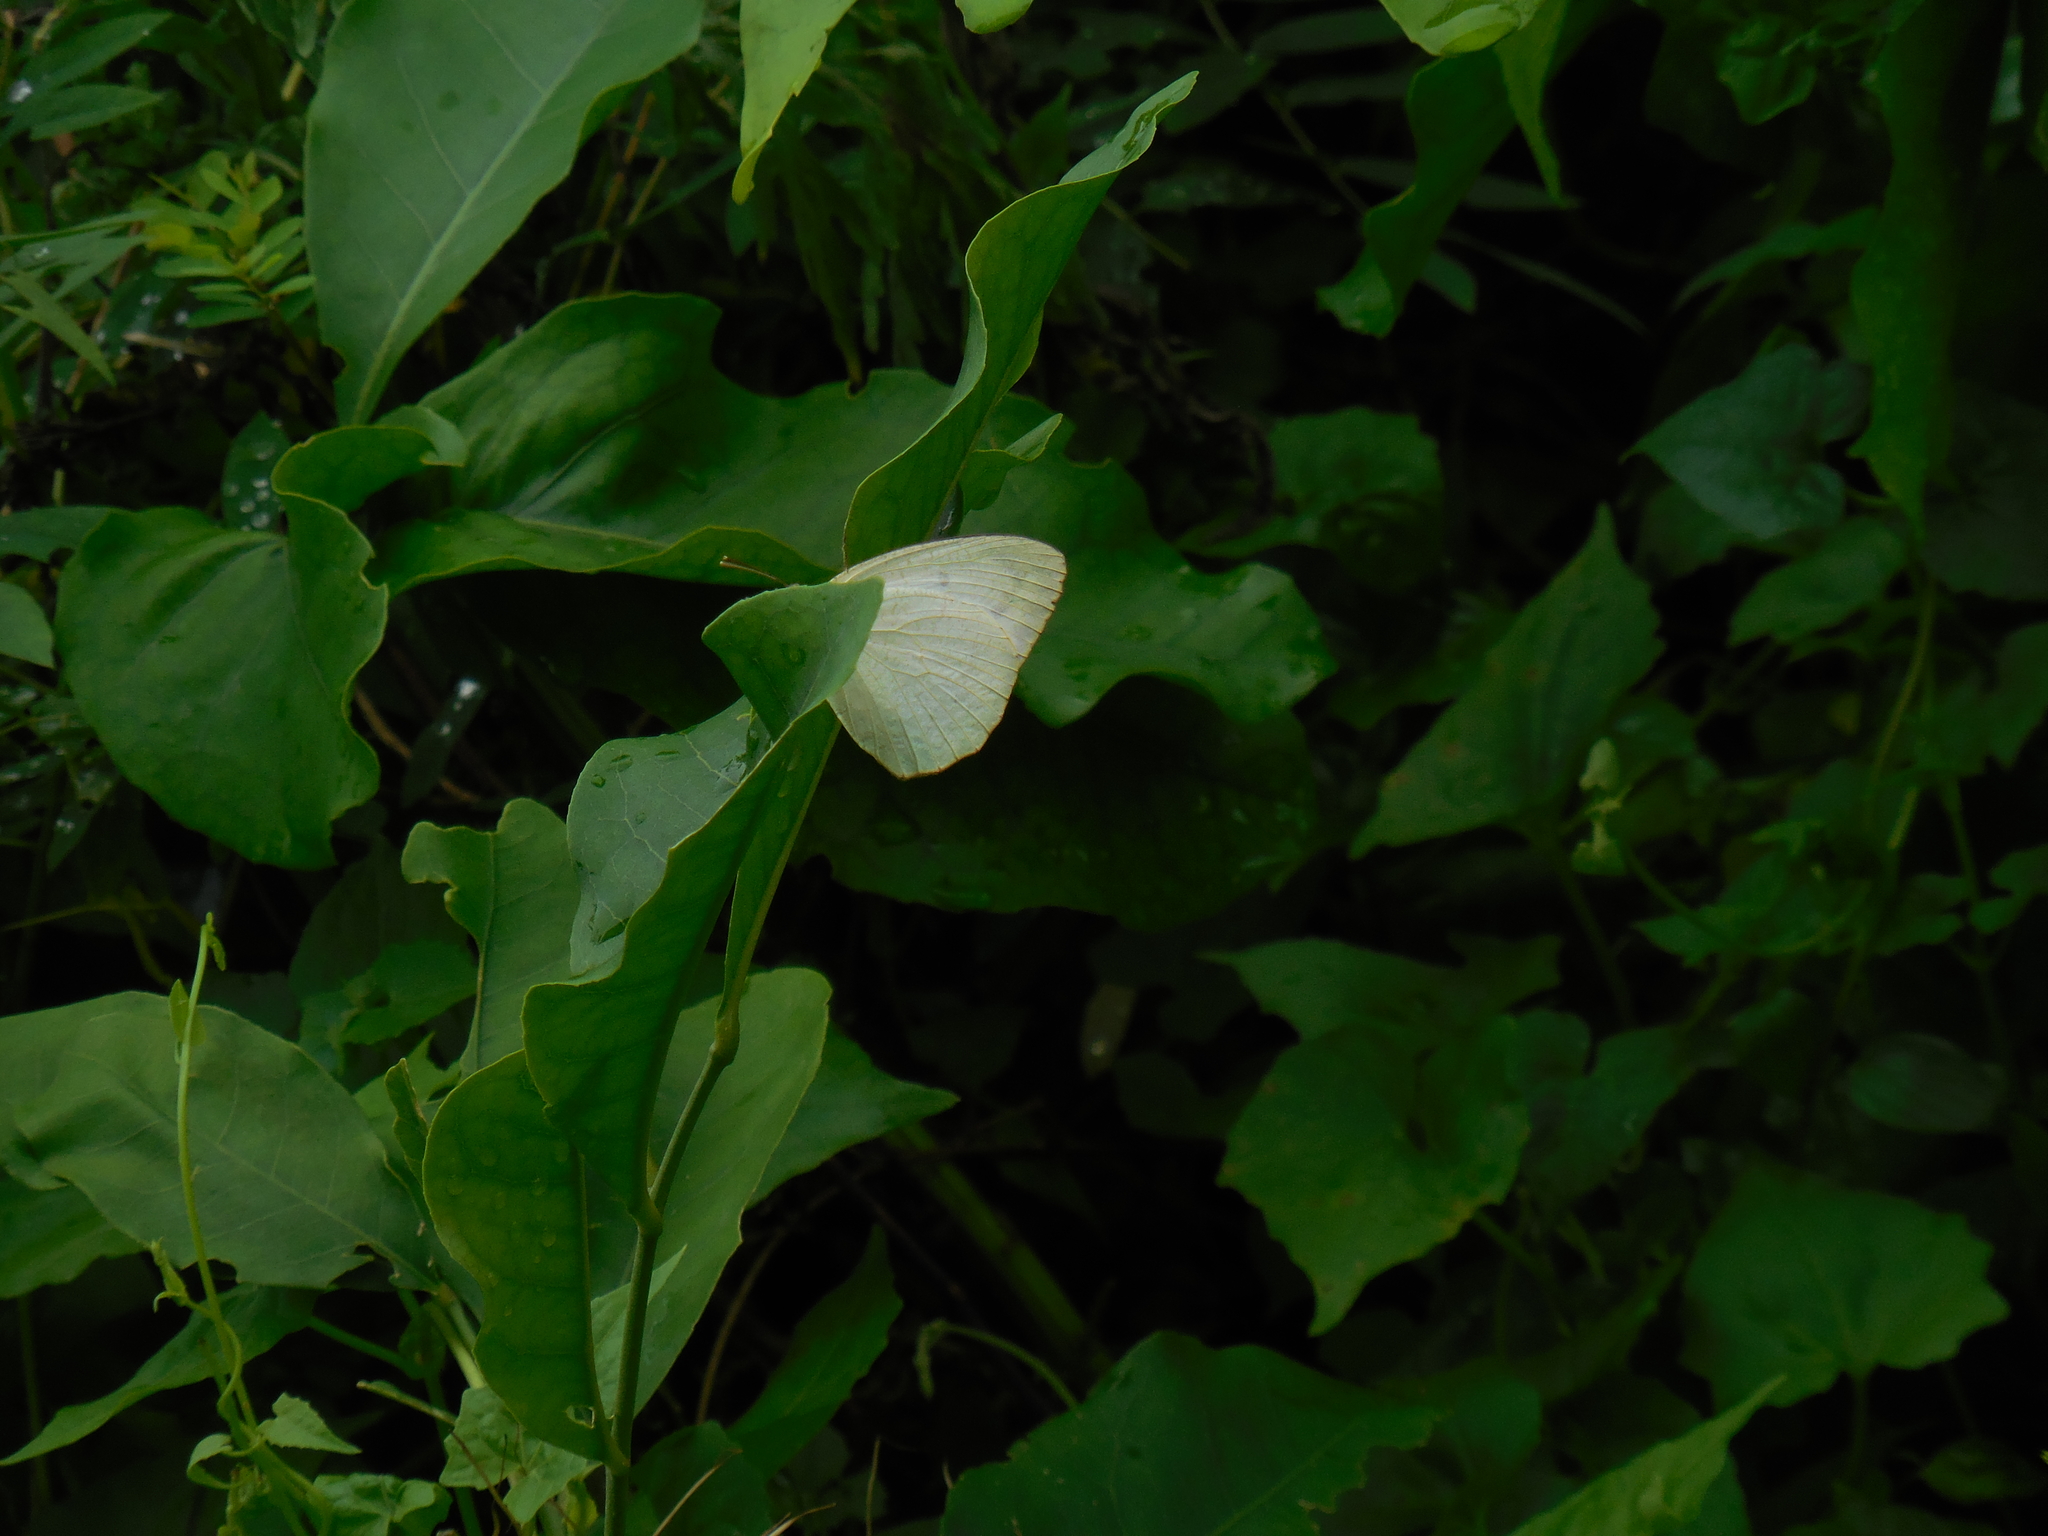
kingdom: Animalia
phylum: Arthropoda
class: Insecta
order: Lepidoptera
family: Pieridae
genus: Catopsilia
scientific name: Catopsilia pyranthe
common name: Mottled emigrant
